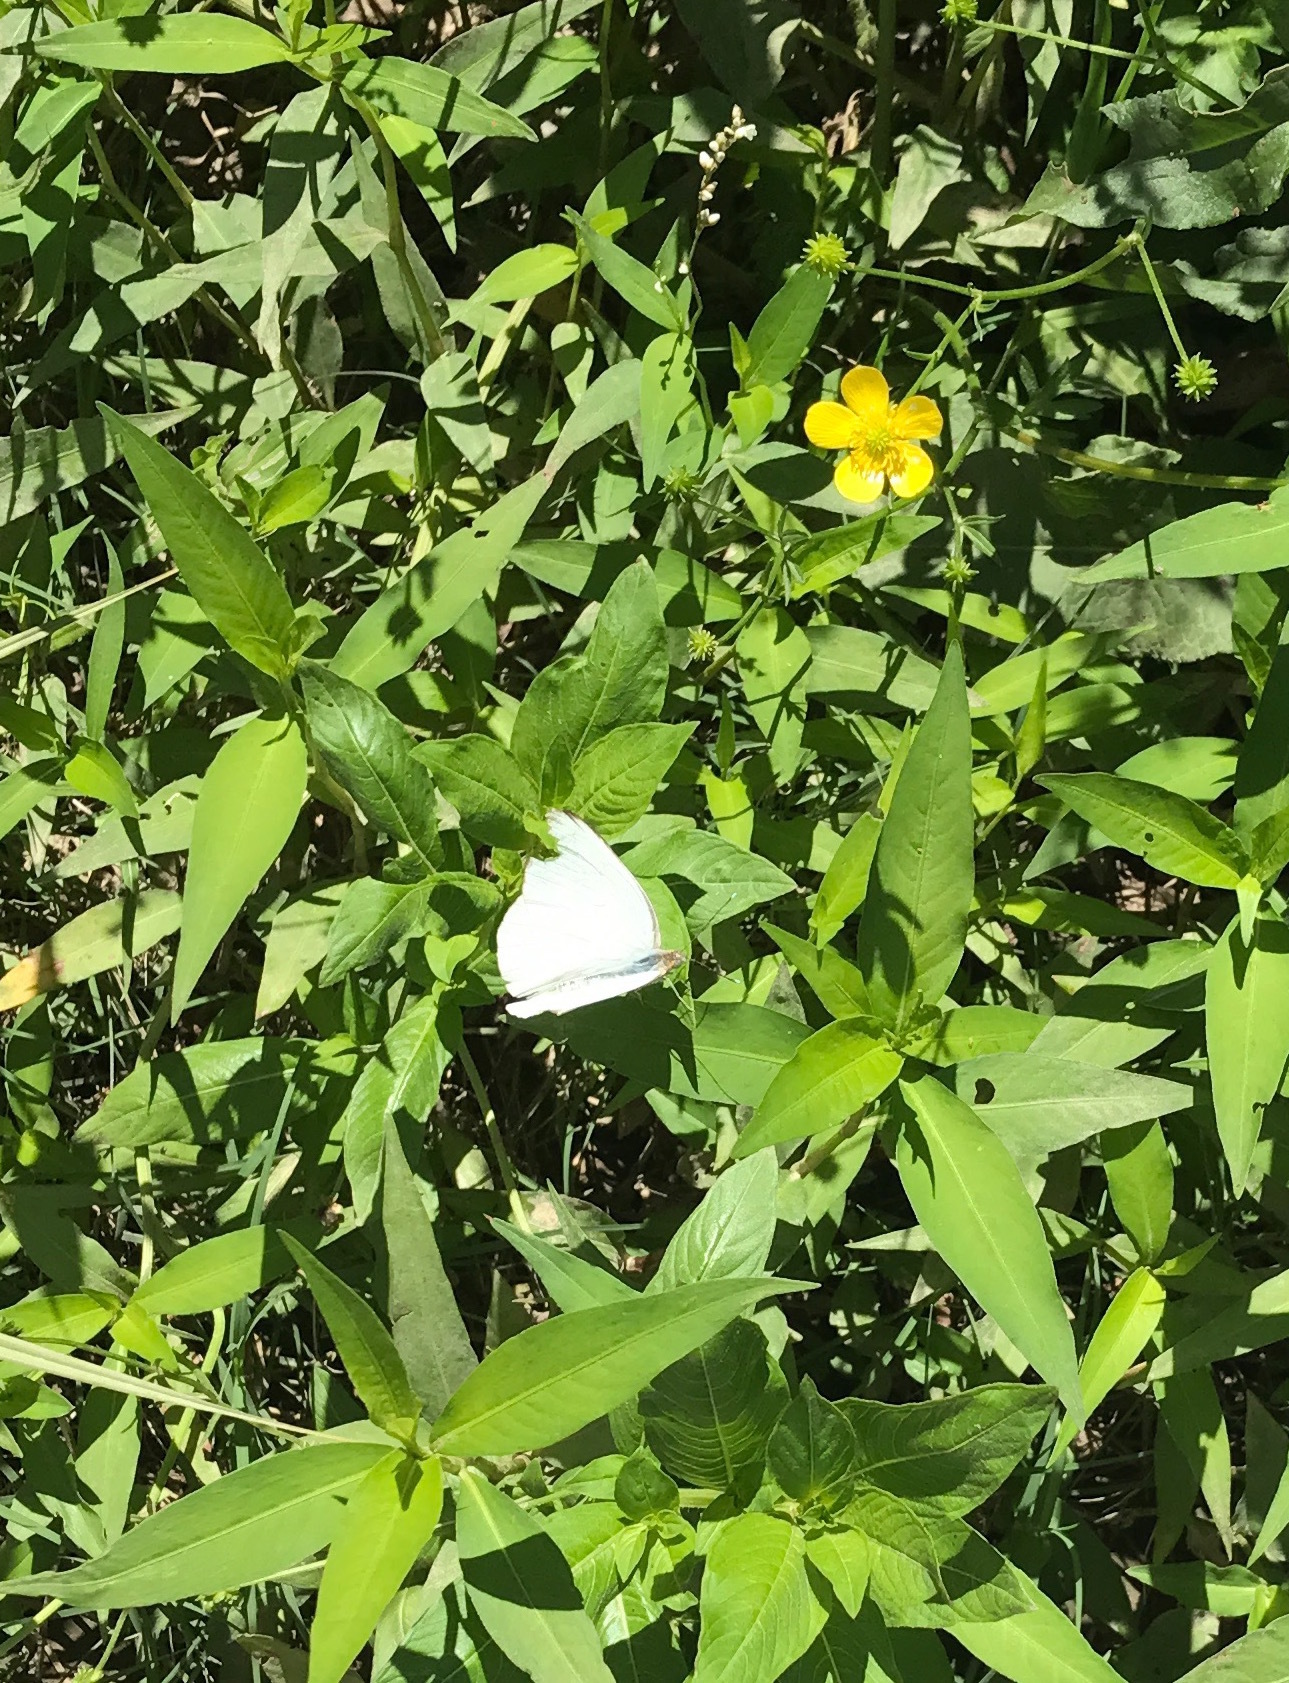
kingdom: Animalia
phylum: Arthropoda
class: Insecta
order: Lepidoptera
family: Pieridae
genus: Ascia
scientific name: Ascia monuste
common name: Great southern white
